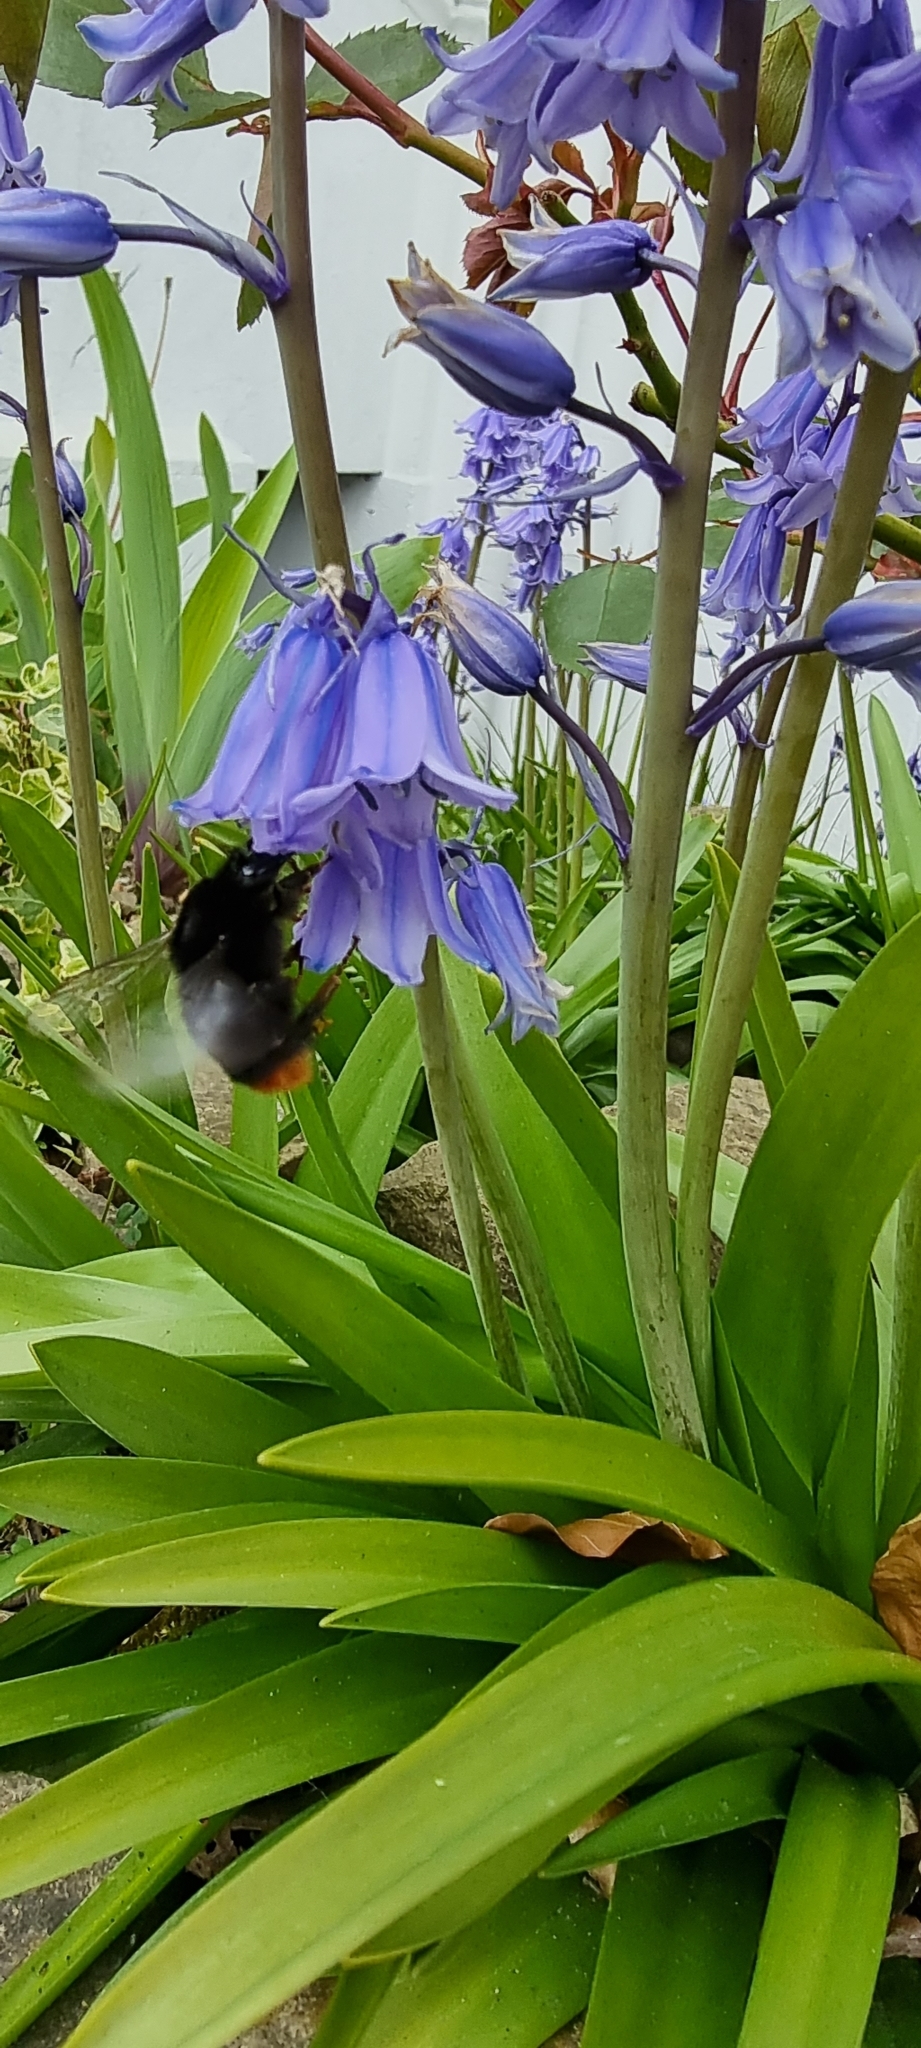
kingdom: Animalia
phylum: Arthropoda
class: Insecta
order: Hymenoptera
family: Apidae
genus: Bombus
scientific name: Bombus lapidarius
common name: Large red-tailed humble-bee
